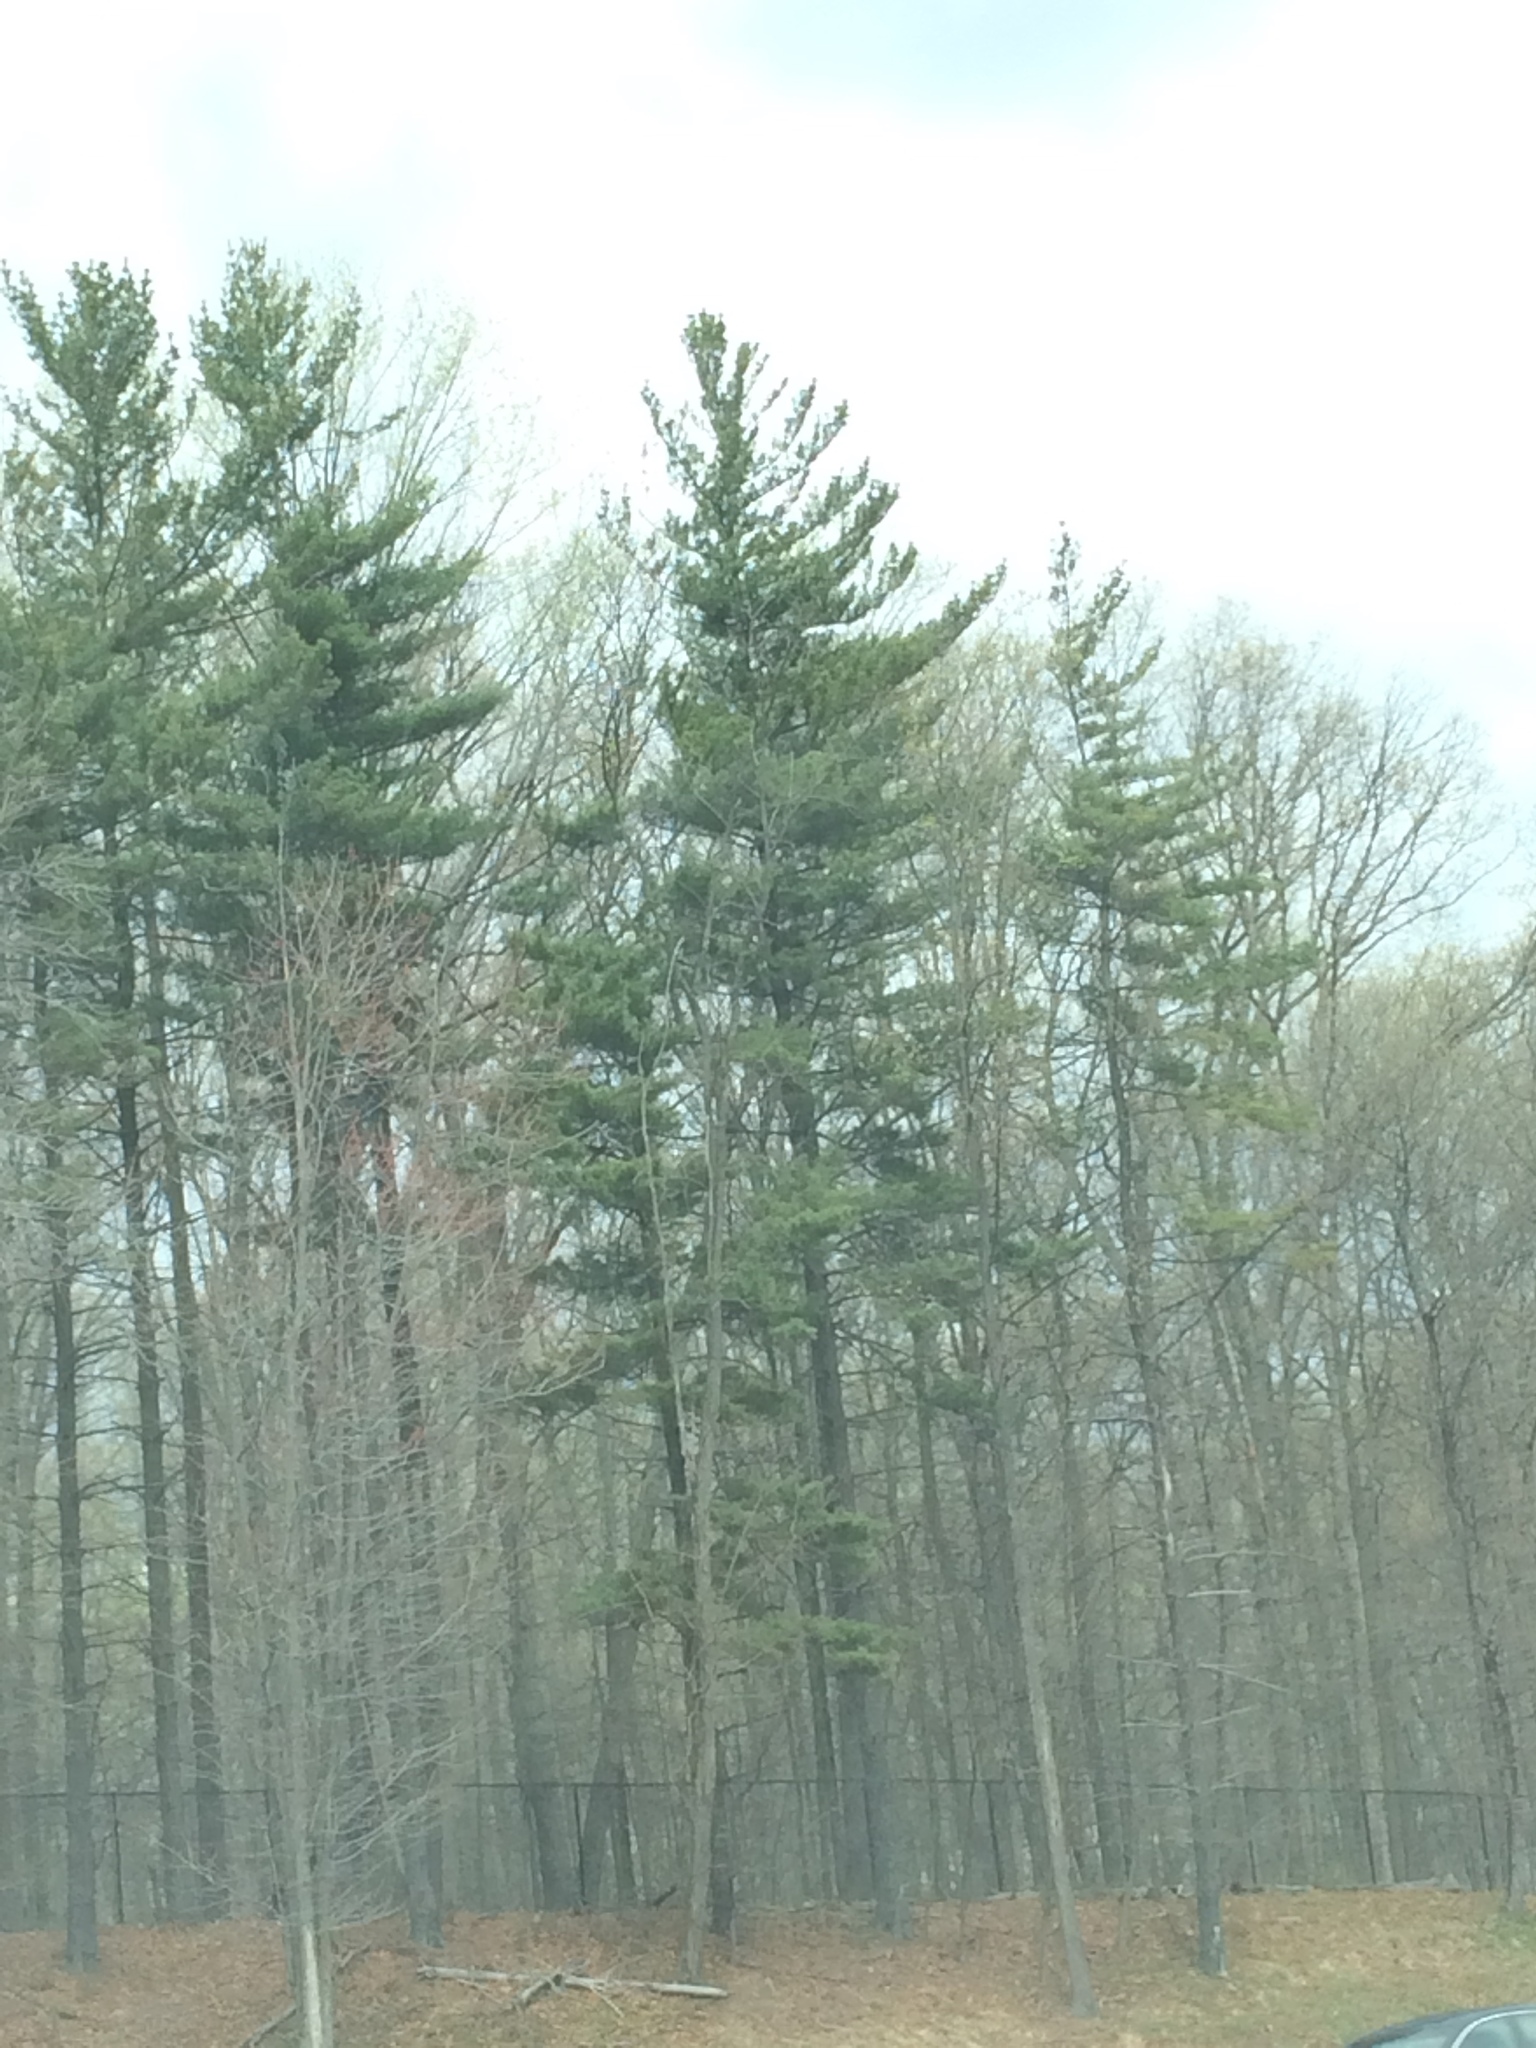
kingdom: Plantae
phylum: Tracheophyta
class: Pinopsida
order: Pinales
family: Pinaceae
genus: Pinus
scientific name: Pinus strobus
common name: Weymouth pine
